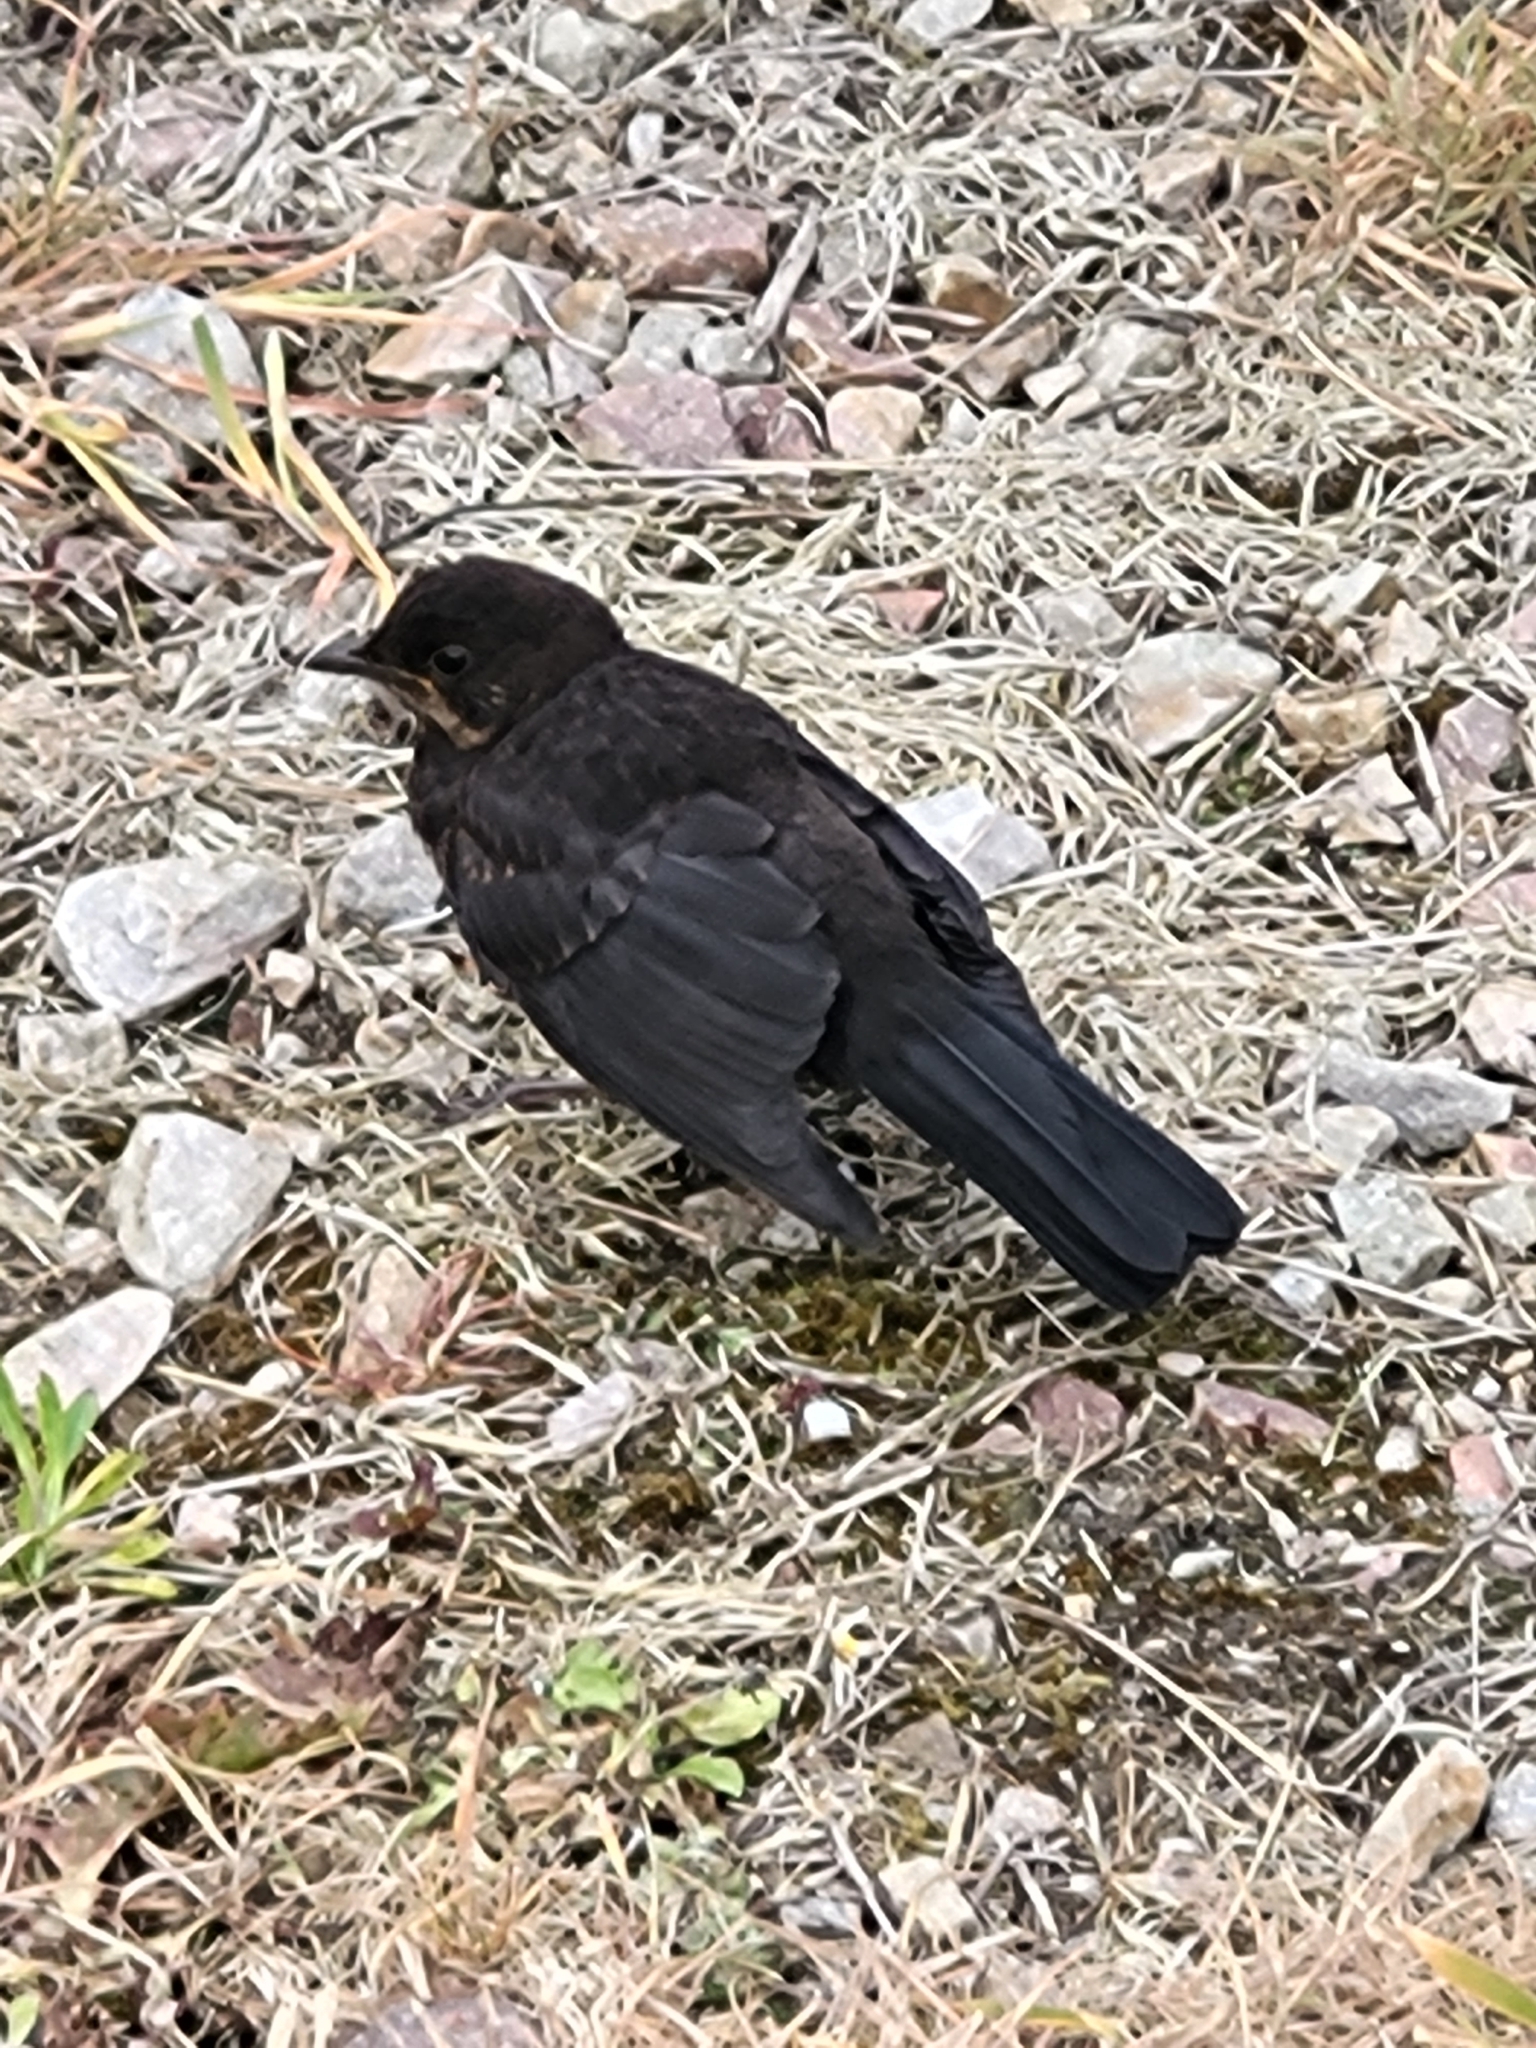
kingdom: Animalia
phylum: Chordata
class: Aves
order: Passeriformes
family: Turdidae
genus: Turdus
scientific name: Turdus merula
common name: Common blackbird
